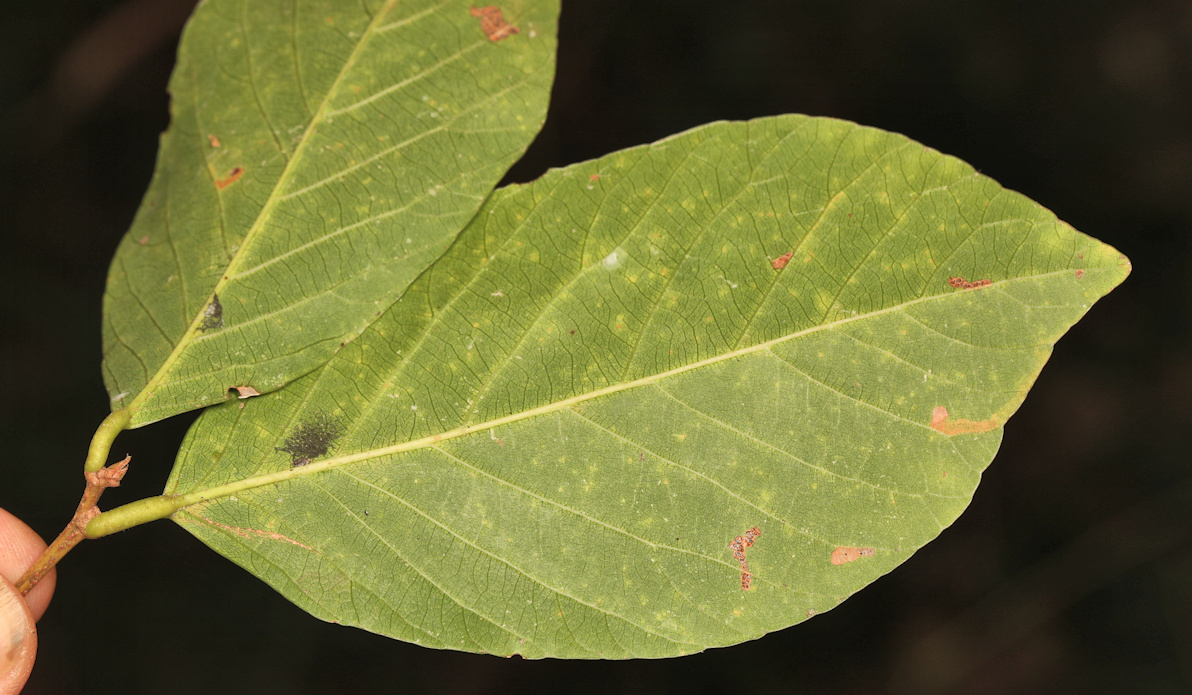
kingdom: Plantae
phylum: Tracheophyta
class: Magnoliopsida
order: Malpighiales
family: Phyllanthaceae
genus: Bridelia
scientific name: Bridelia micrantha
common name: Bridelia
